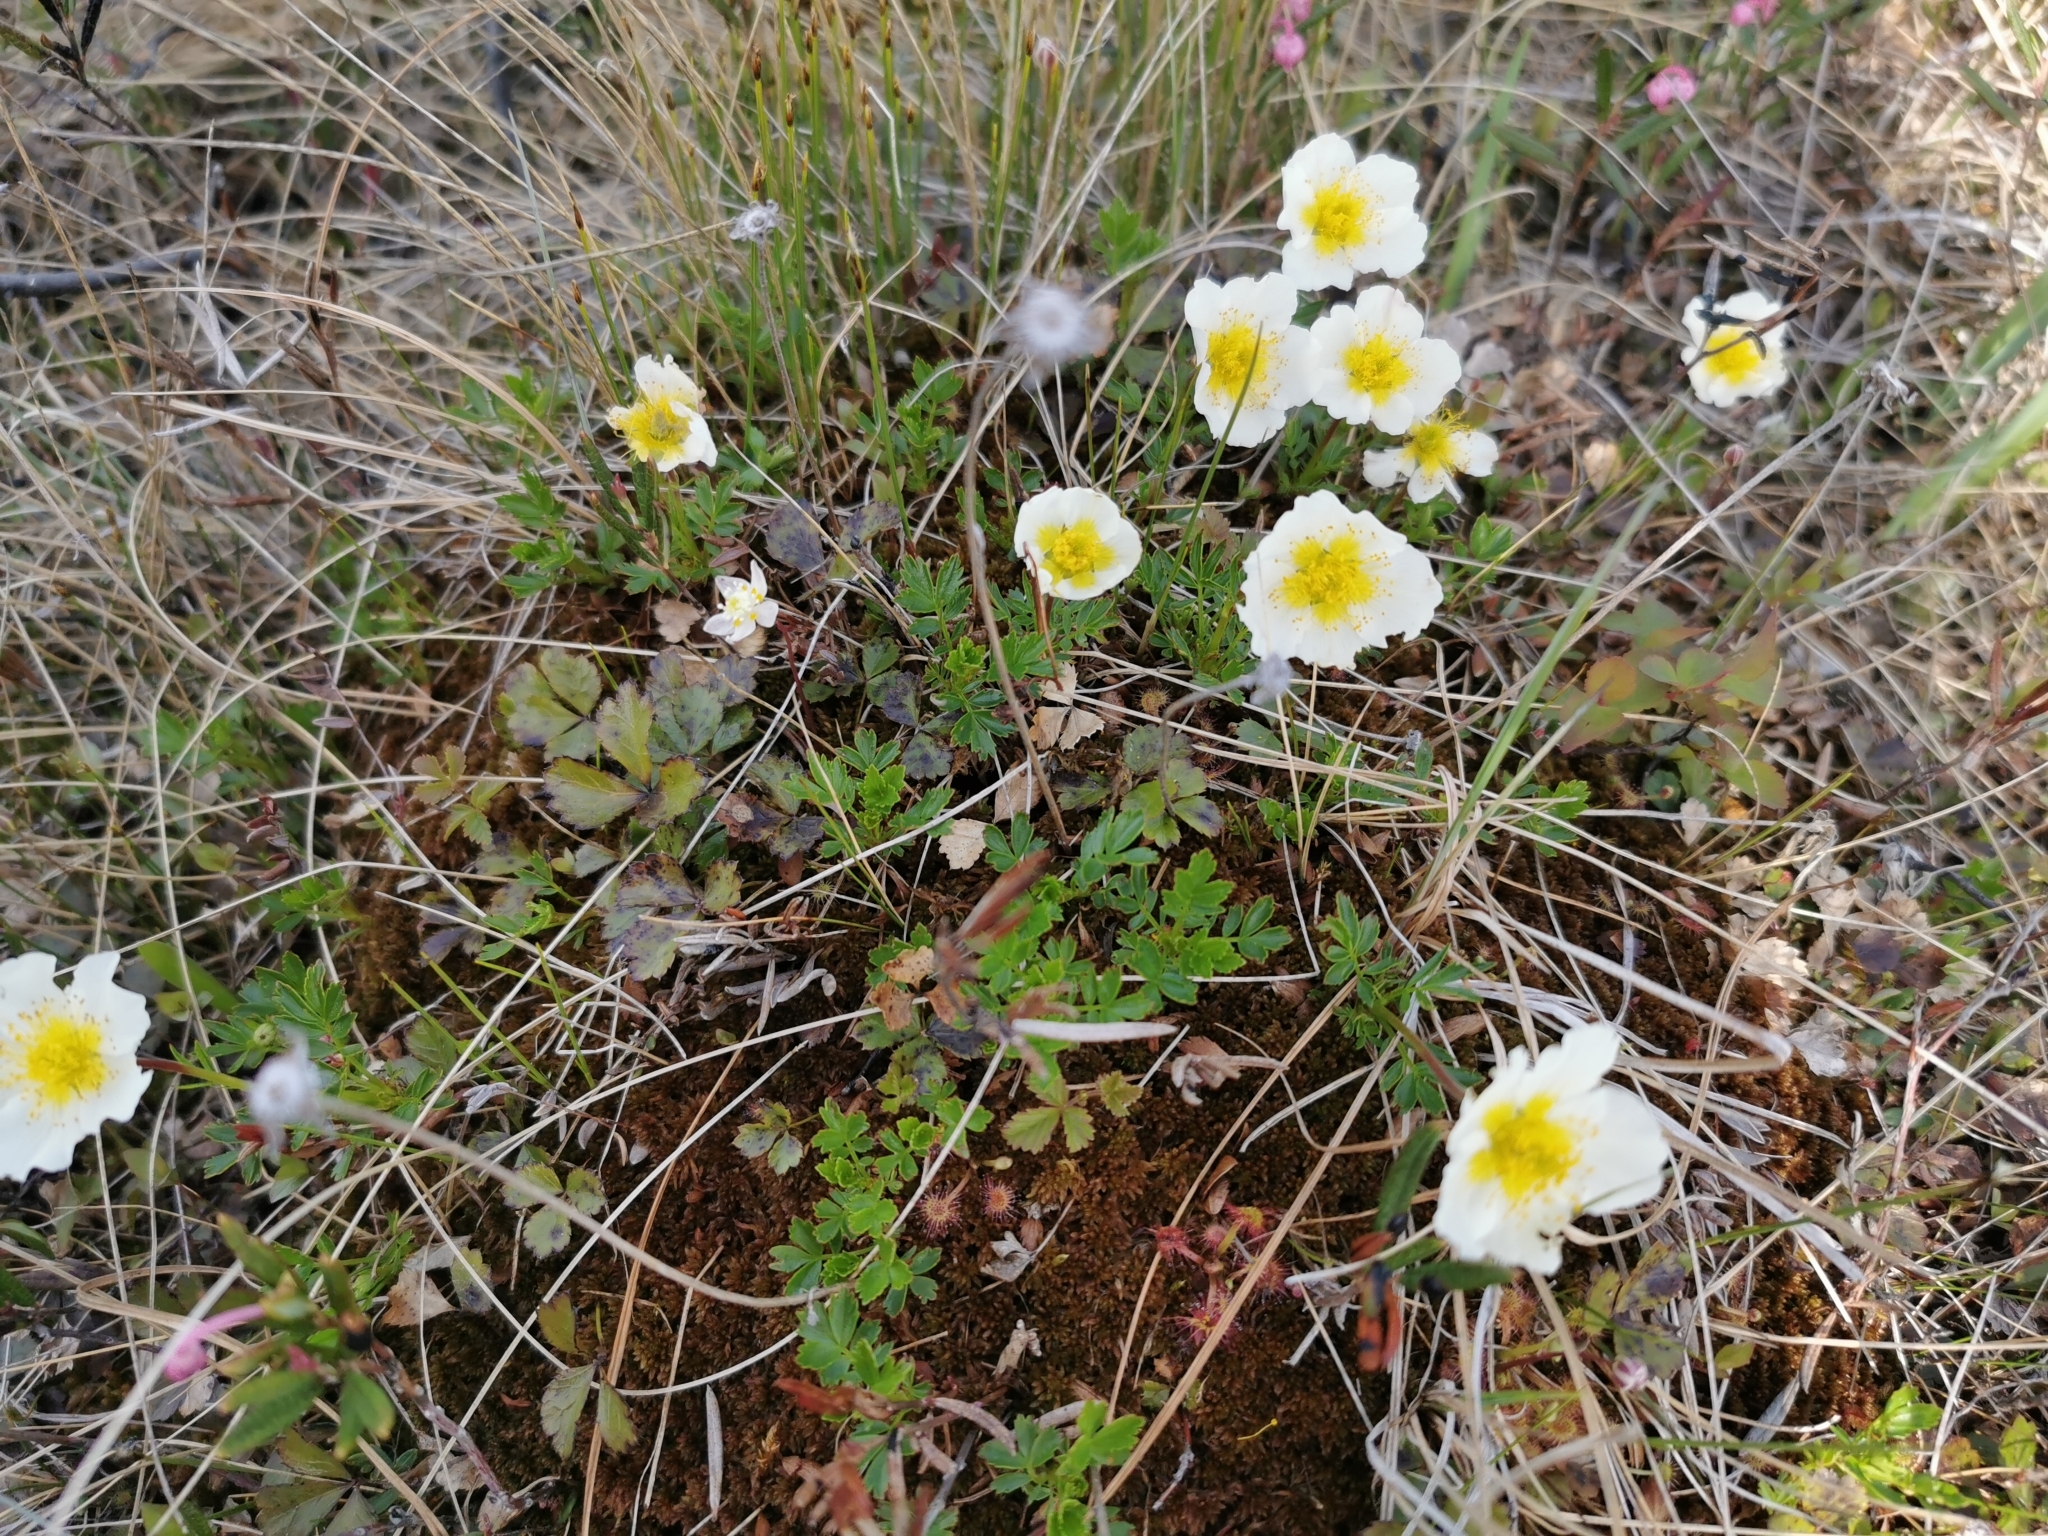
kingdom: Plantae
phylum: Tracheophyta
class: Magnoliopsida
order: Rosales
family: Rosaceae
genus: Geum
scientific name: Geum pentapetalum
